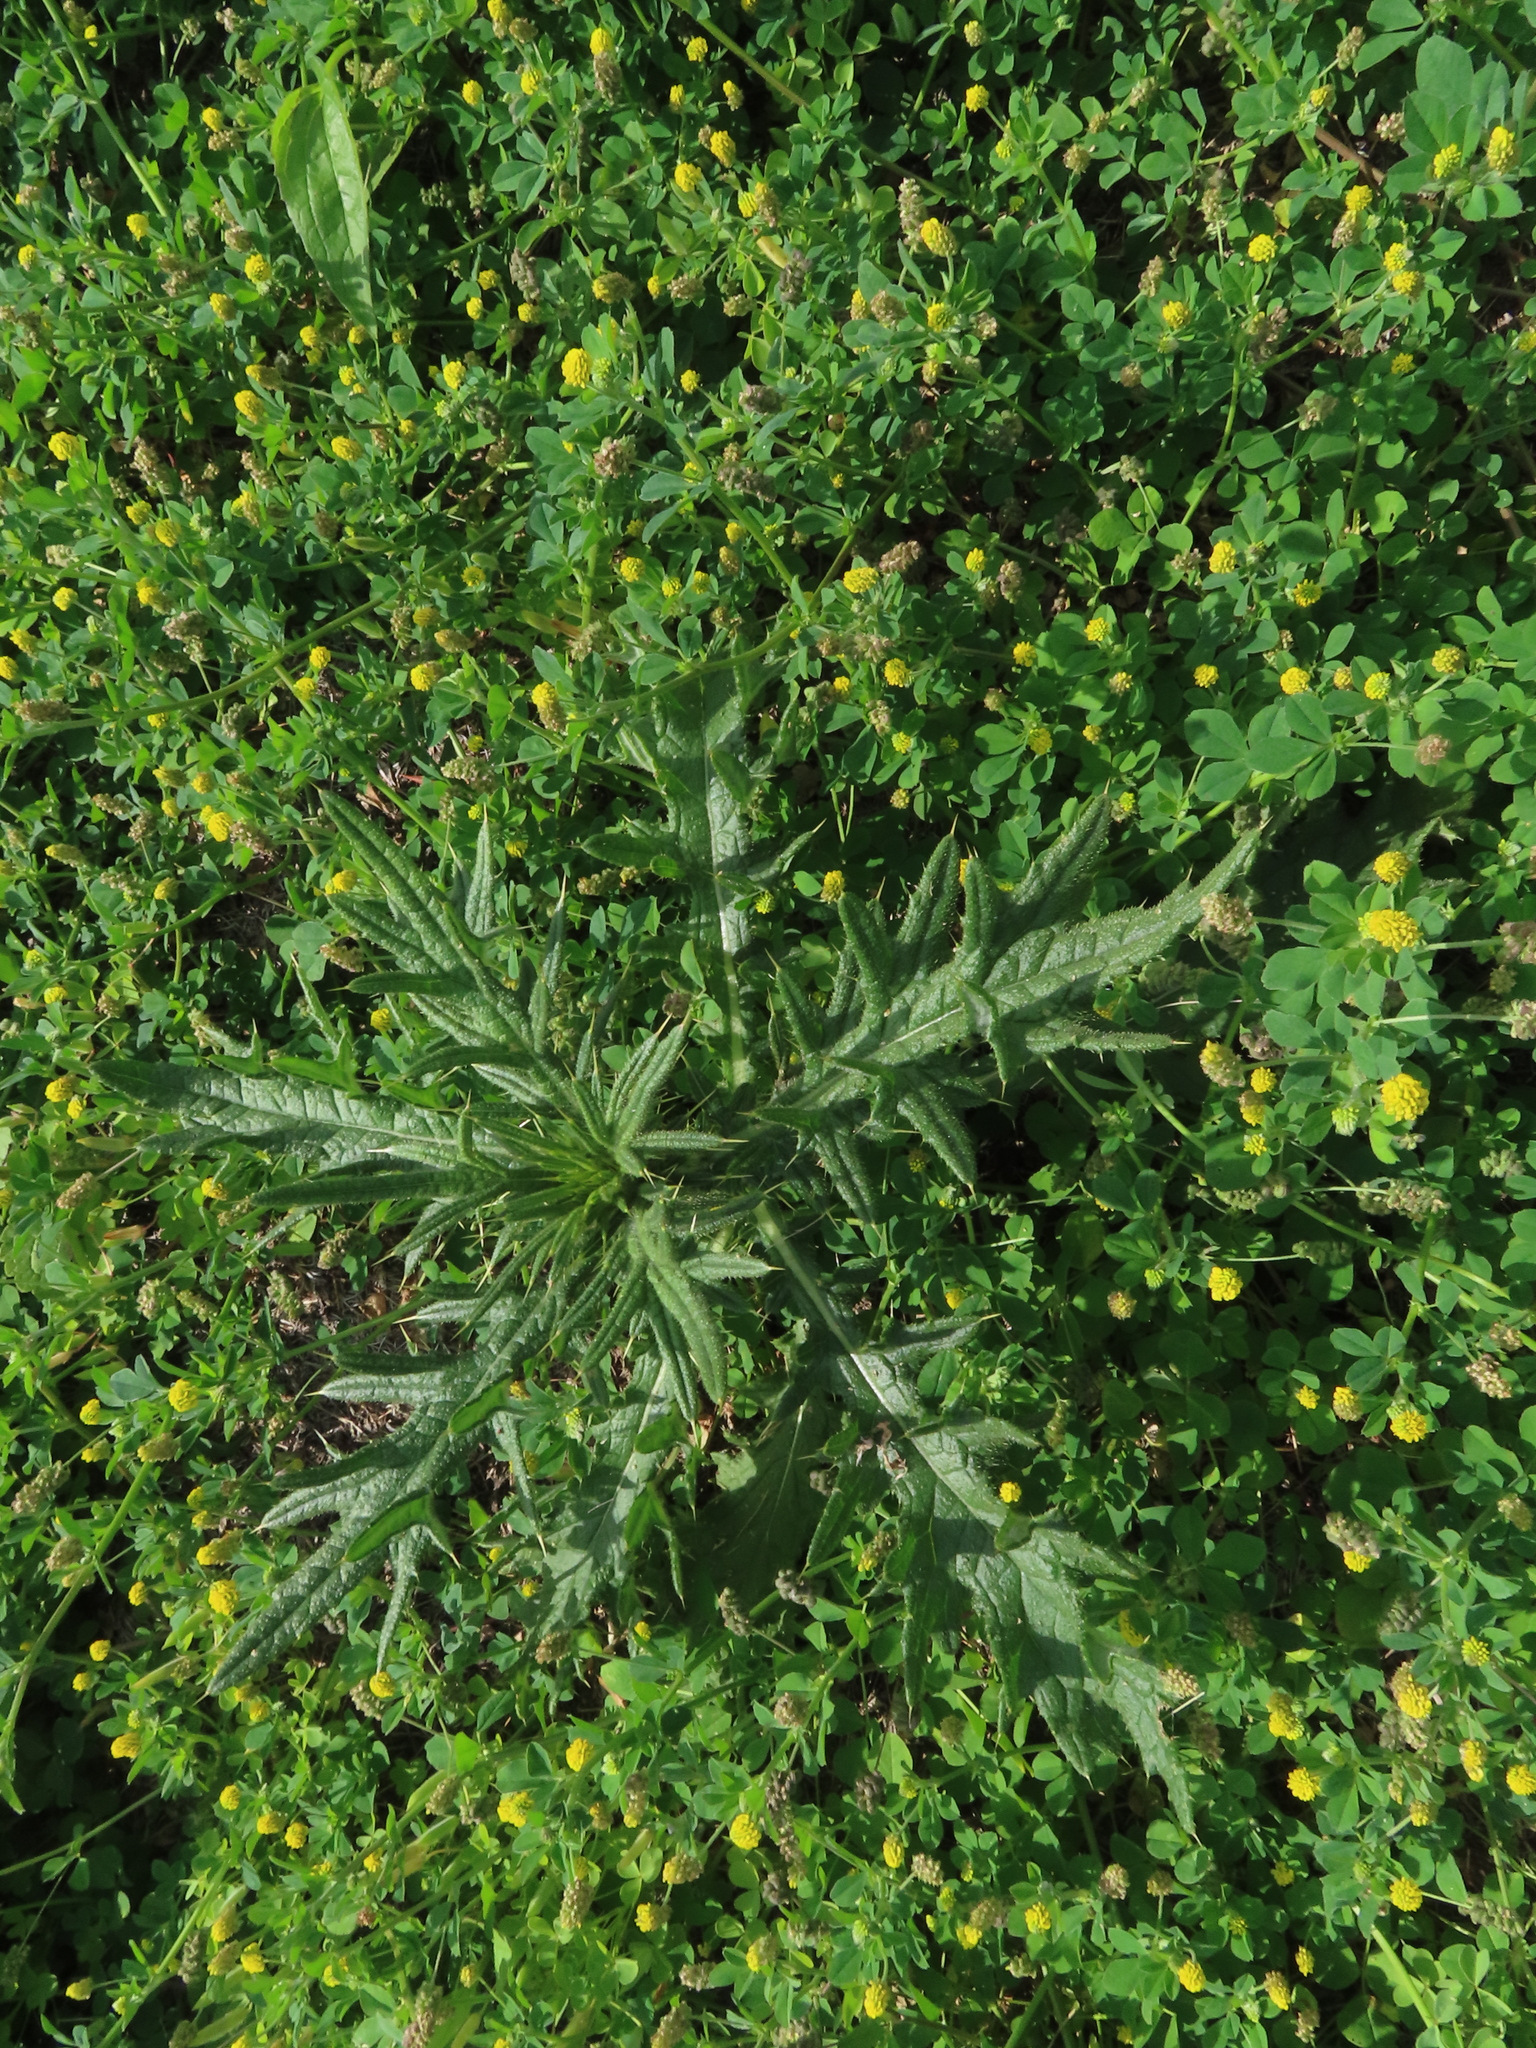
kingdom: Plantae
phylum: Tracheophyta
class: Magnoliopsida
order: Asterales
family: Asteraceae
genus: Cirsium
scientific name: Cirsium vulgare
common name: Bull thistle
